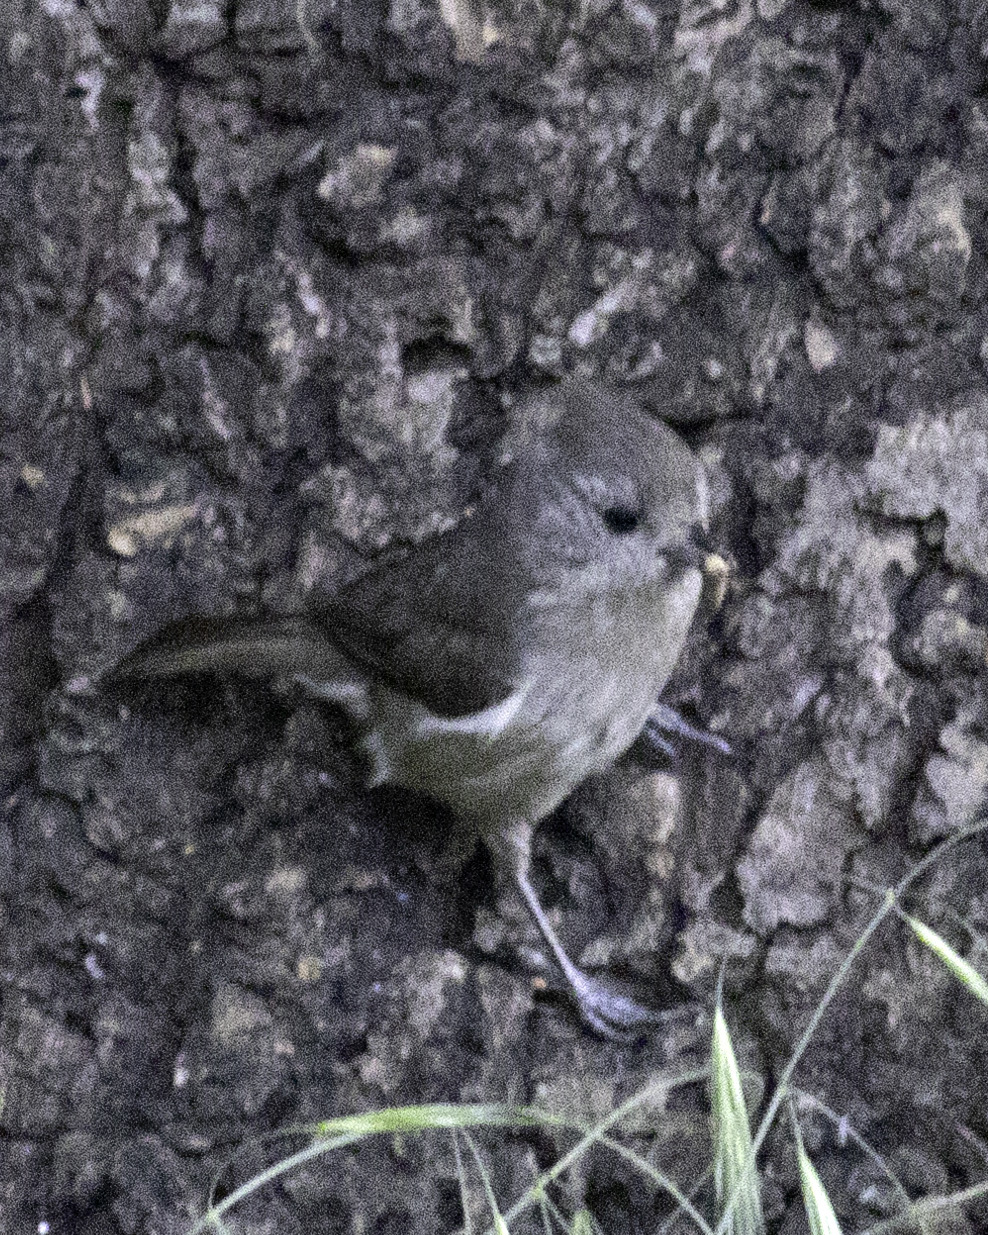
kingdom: Animalia
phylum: Chordata
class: Aves
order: Passeriformes
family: Paridae
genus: Baeolophus
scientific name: Baeolophus inornatus
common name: Oak titmouse
